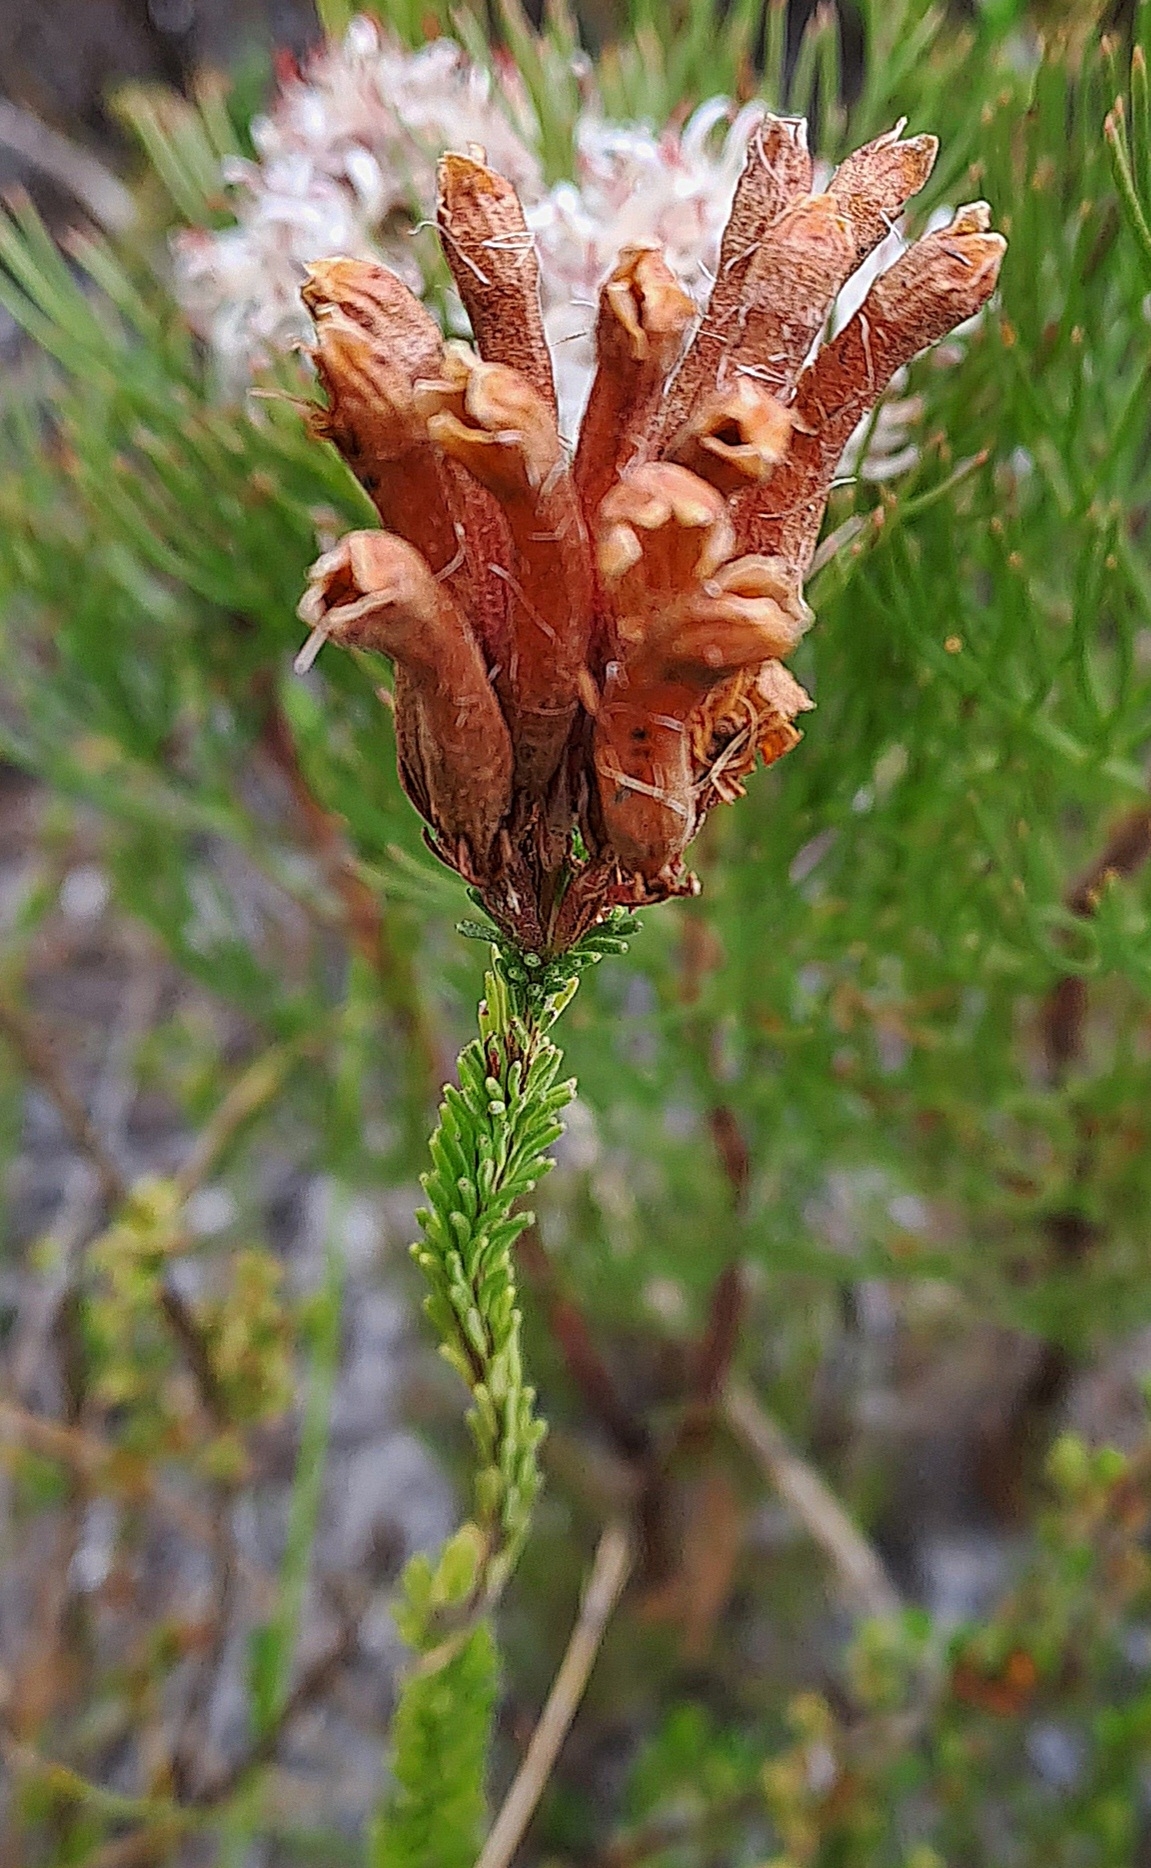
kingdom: Plantae
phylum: Tracheophyta
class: Magnoliopsida
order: Ericales
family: Ericaceae
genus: Erica
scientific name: Erica fascicularis
